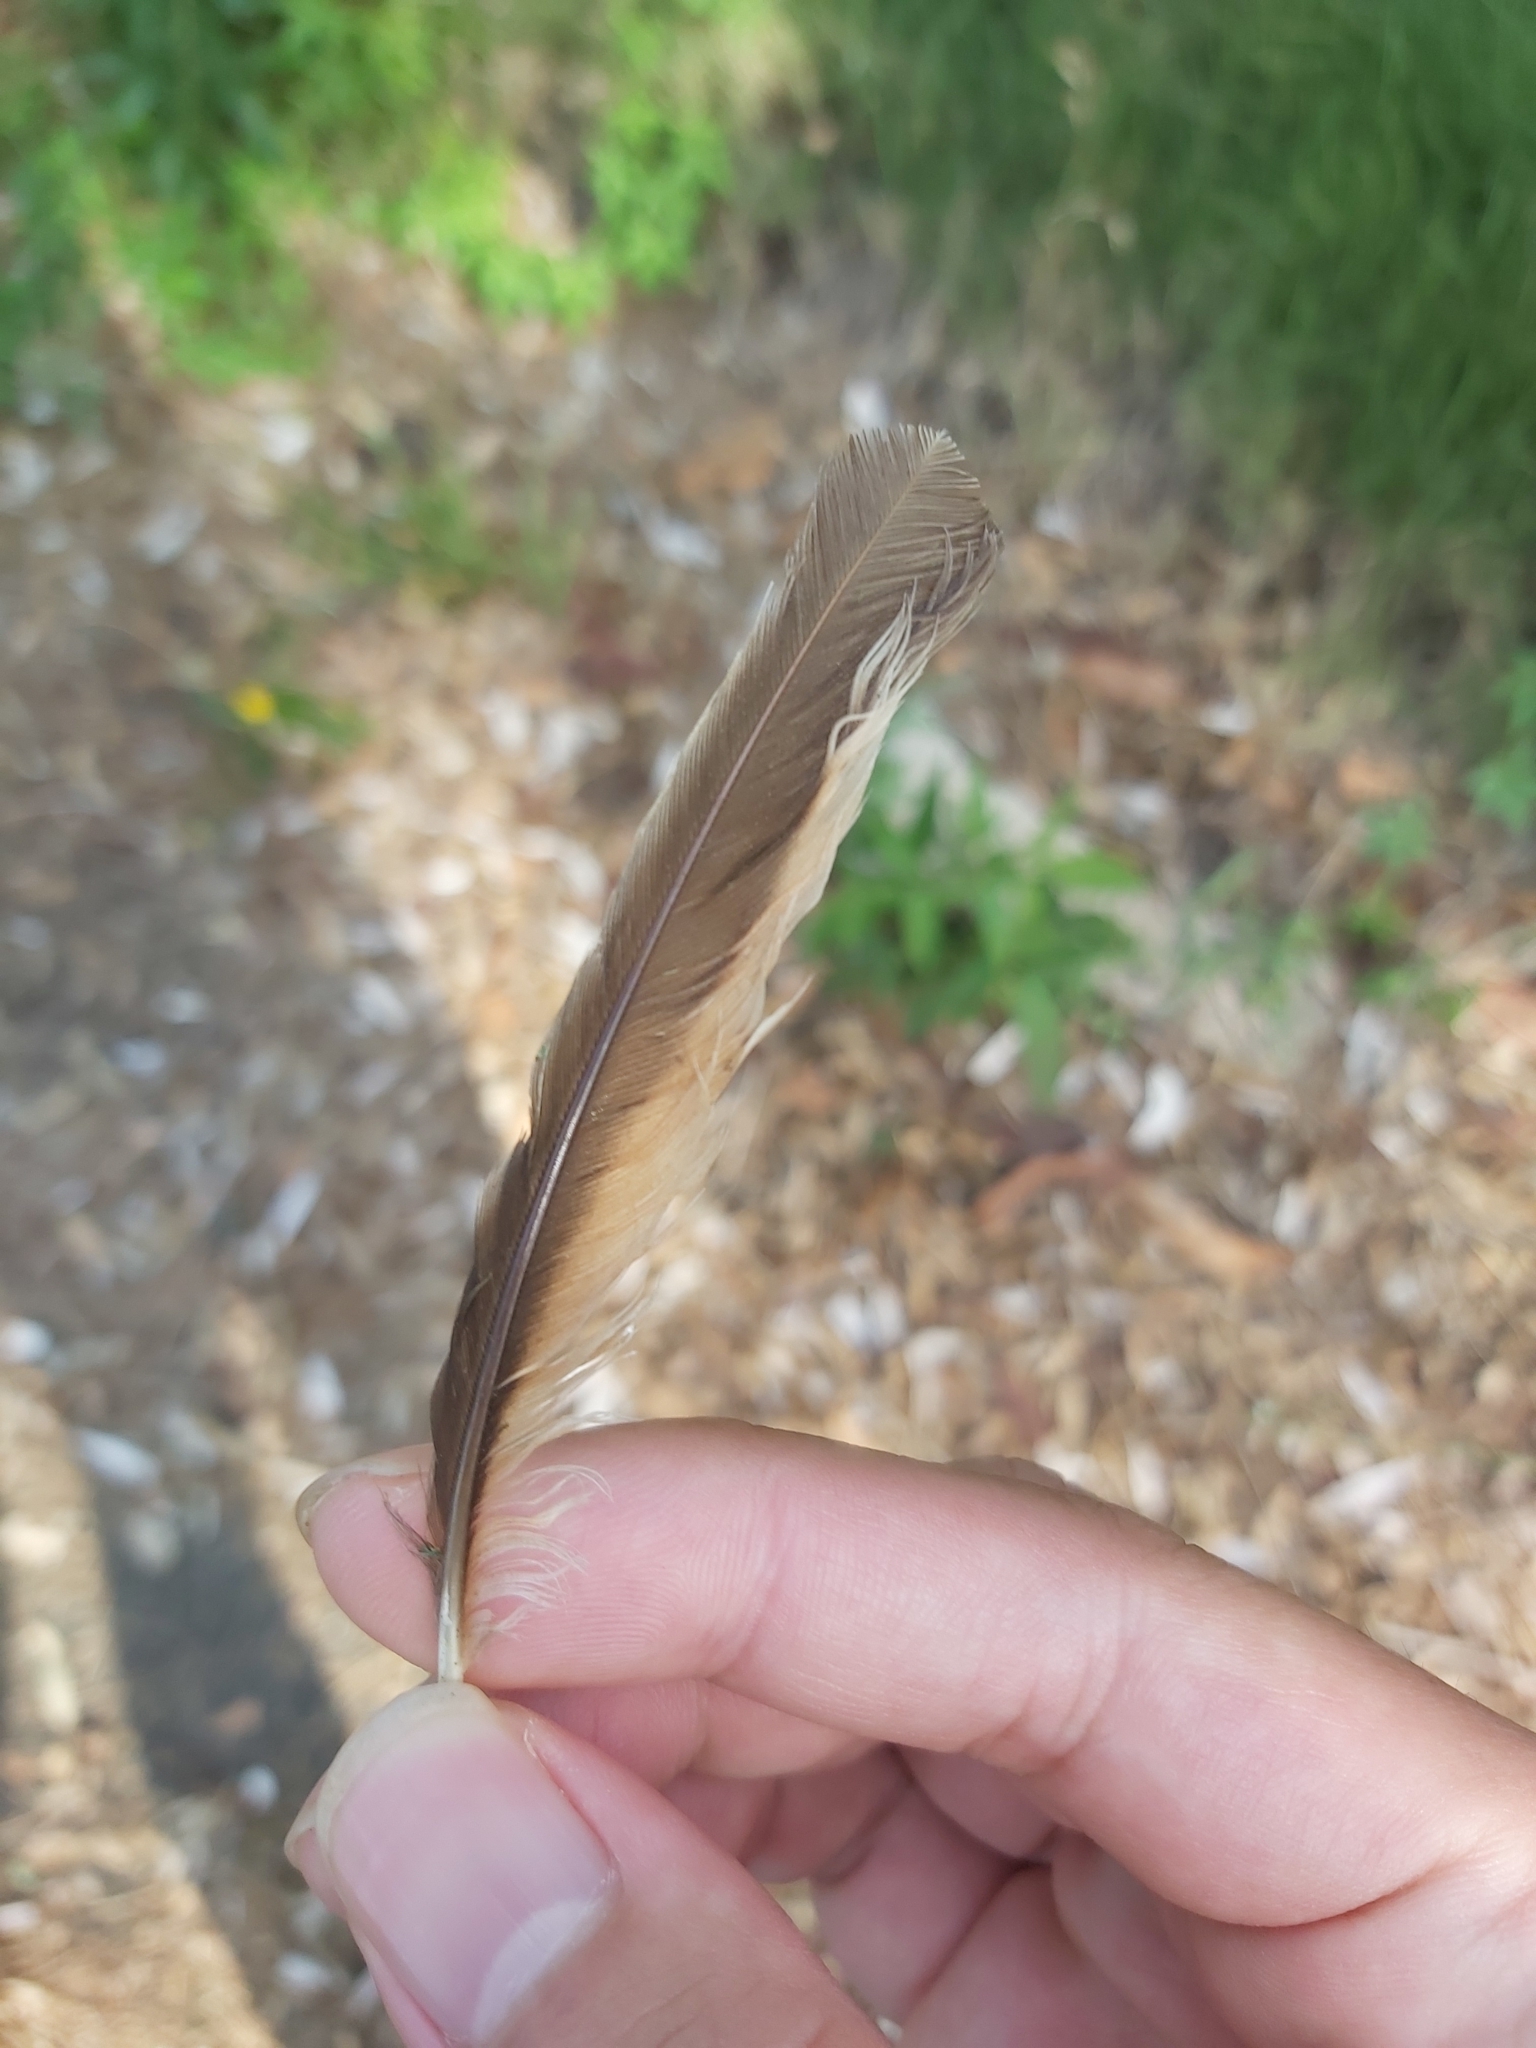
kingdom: Animalia
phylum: Chordata
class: Aves
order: Passeriformes
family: Meliphagidae
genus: Anthochaera
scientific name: Anthochaera chrysoptera
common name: Little wattlebird
